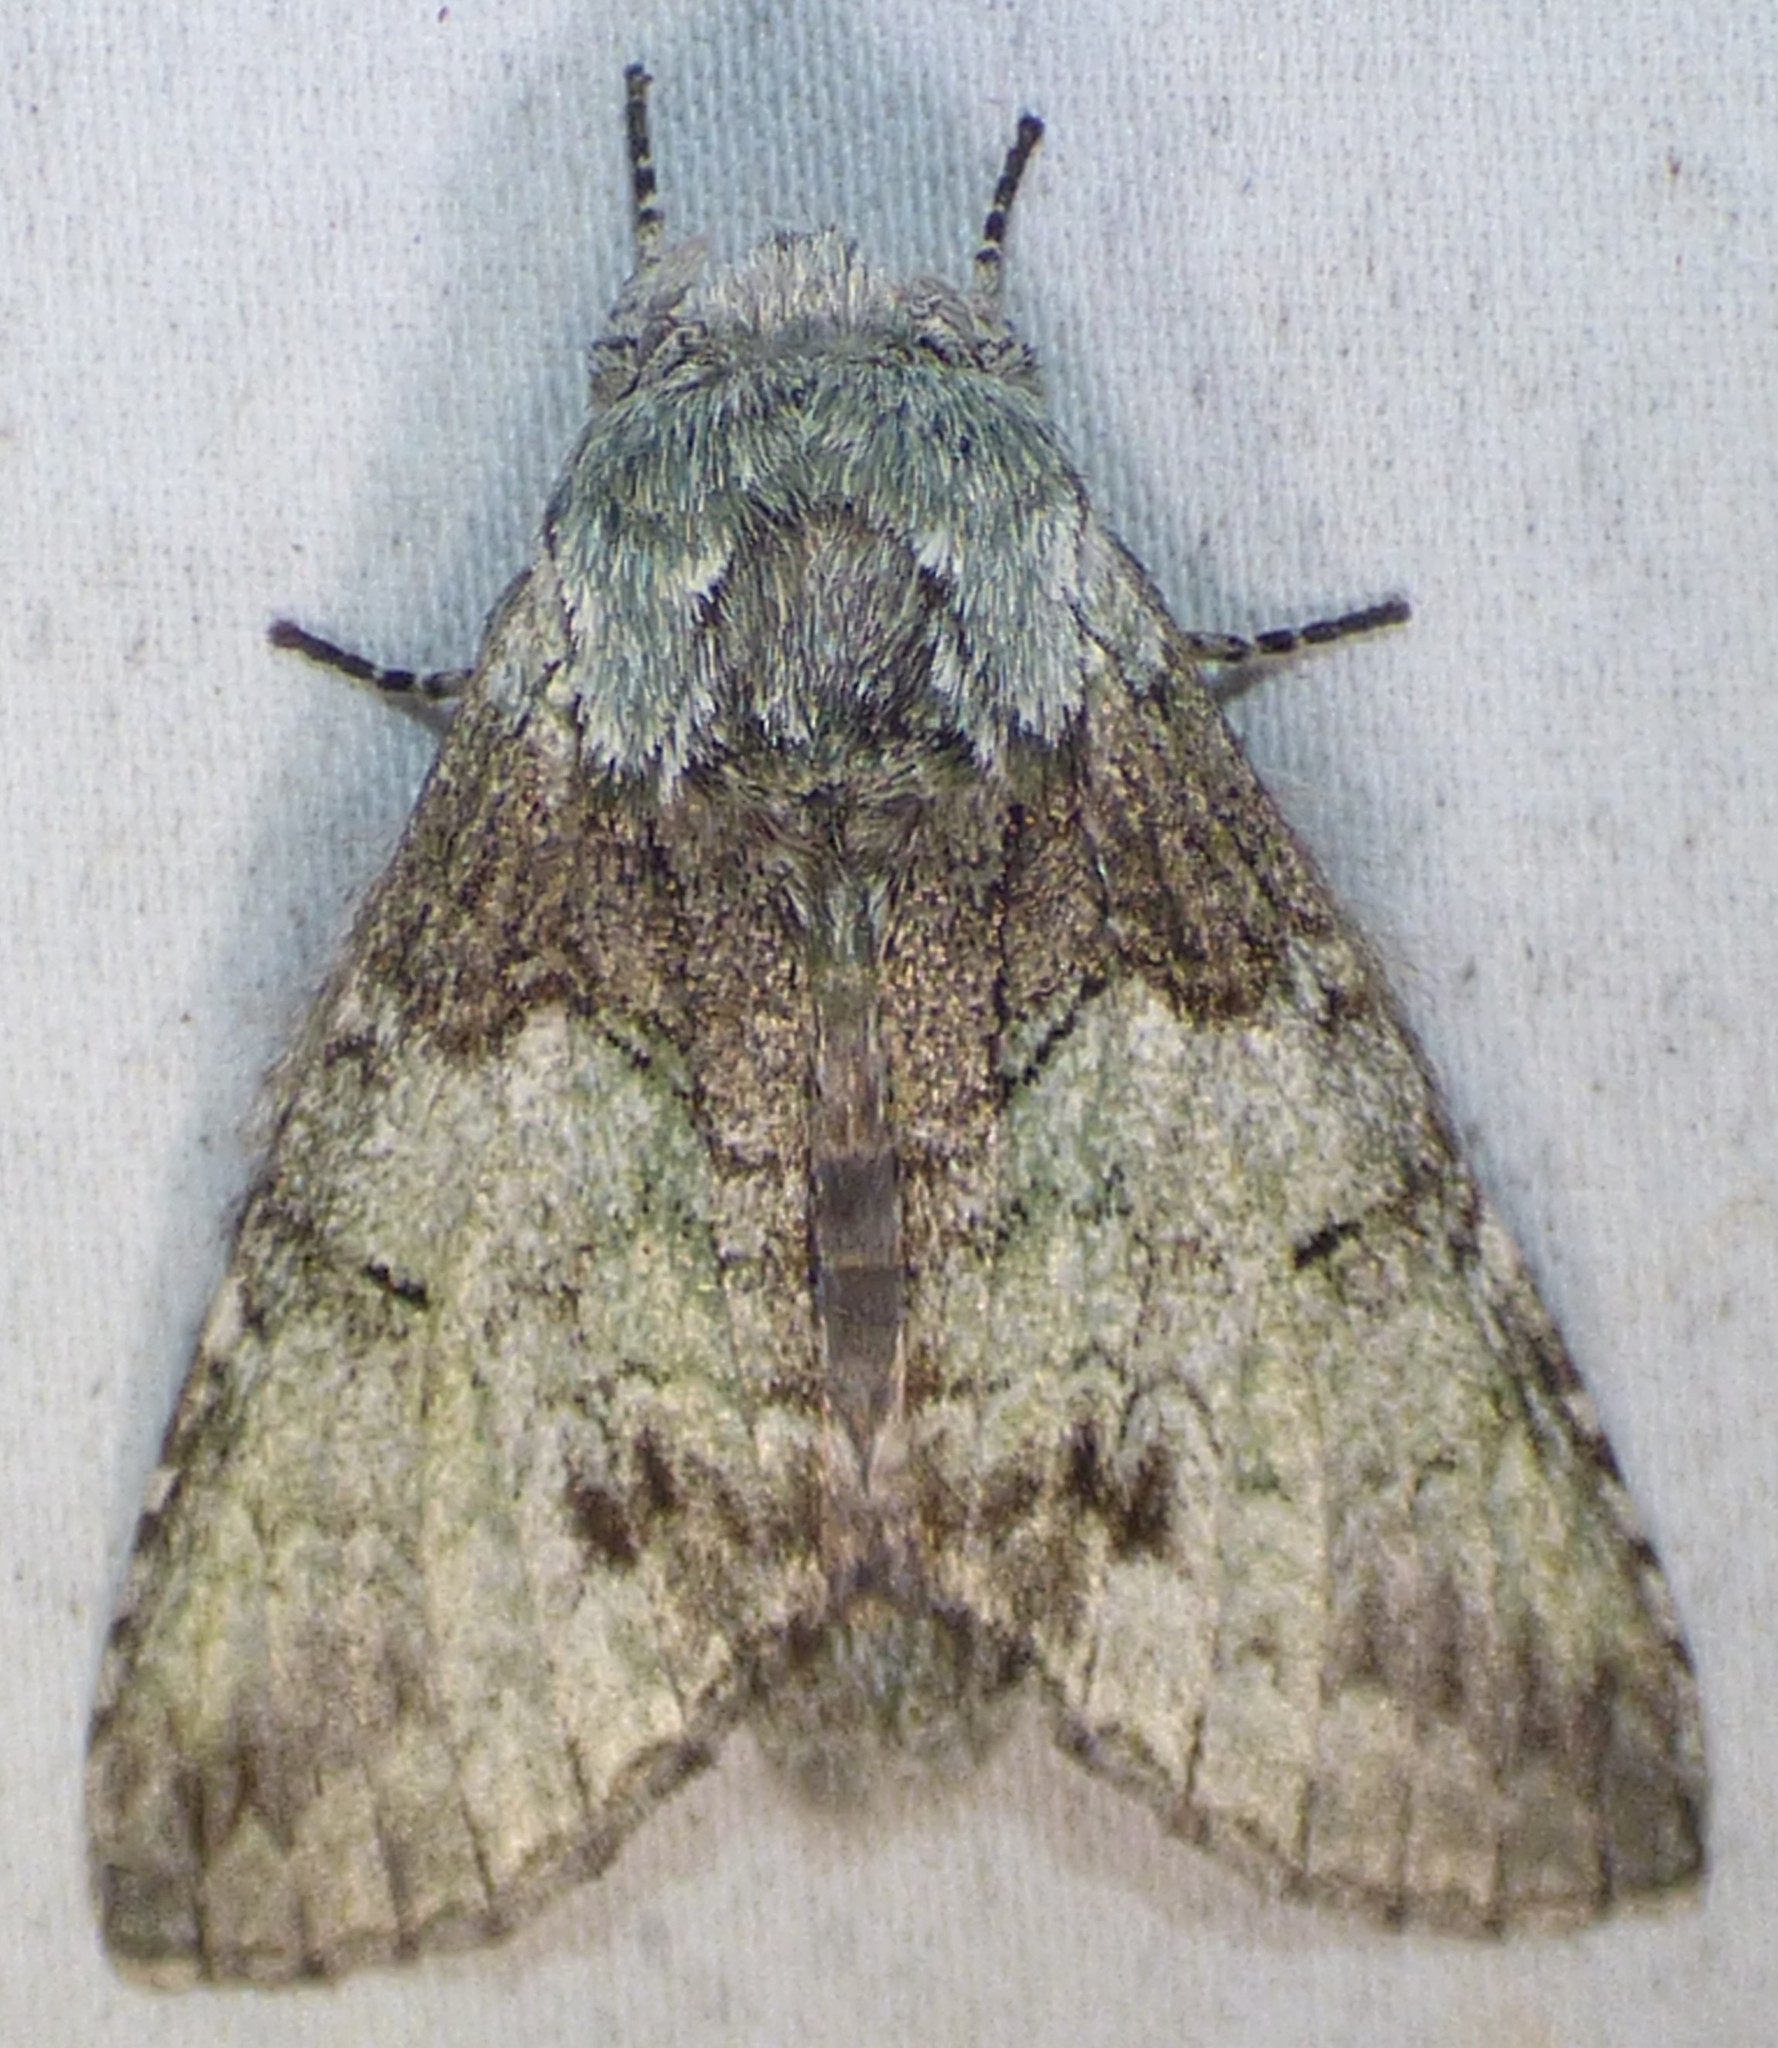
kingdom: Animalia
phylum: Arthropoda
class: Insecta
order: Lepidoptera
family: Notodontidae
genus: Macrurocampa
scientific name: Macrurocampa marthesia
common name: Mottled prominent
